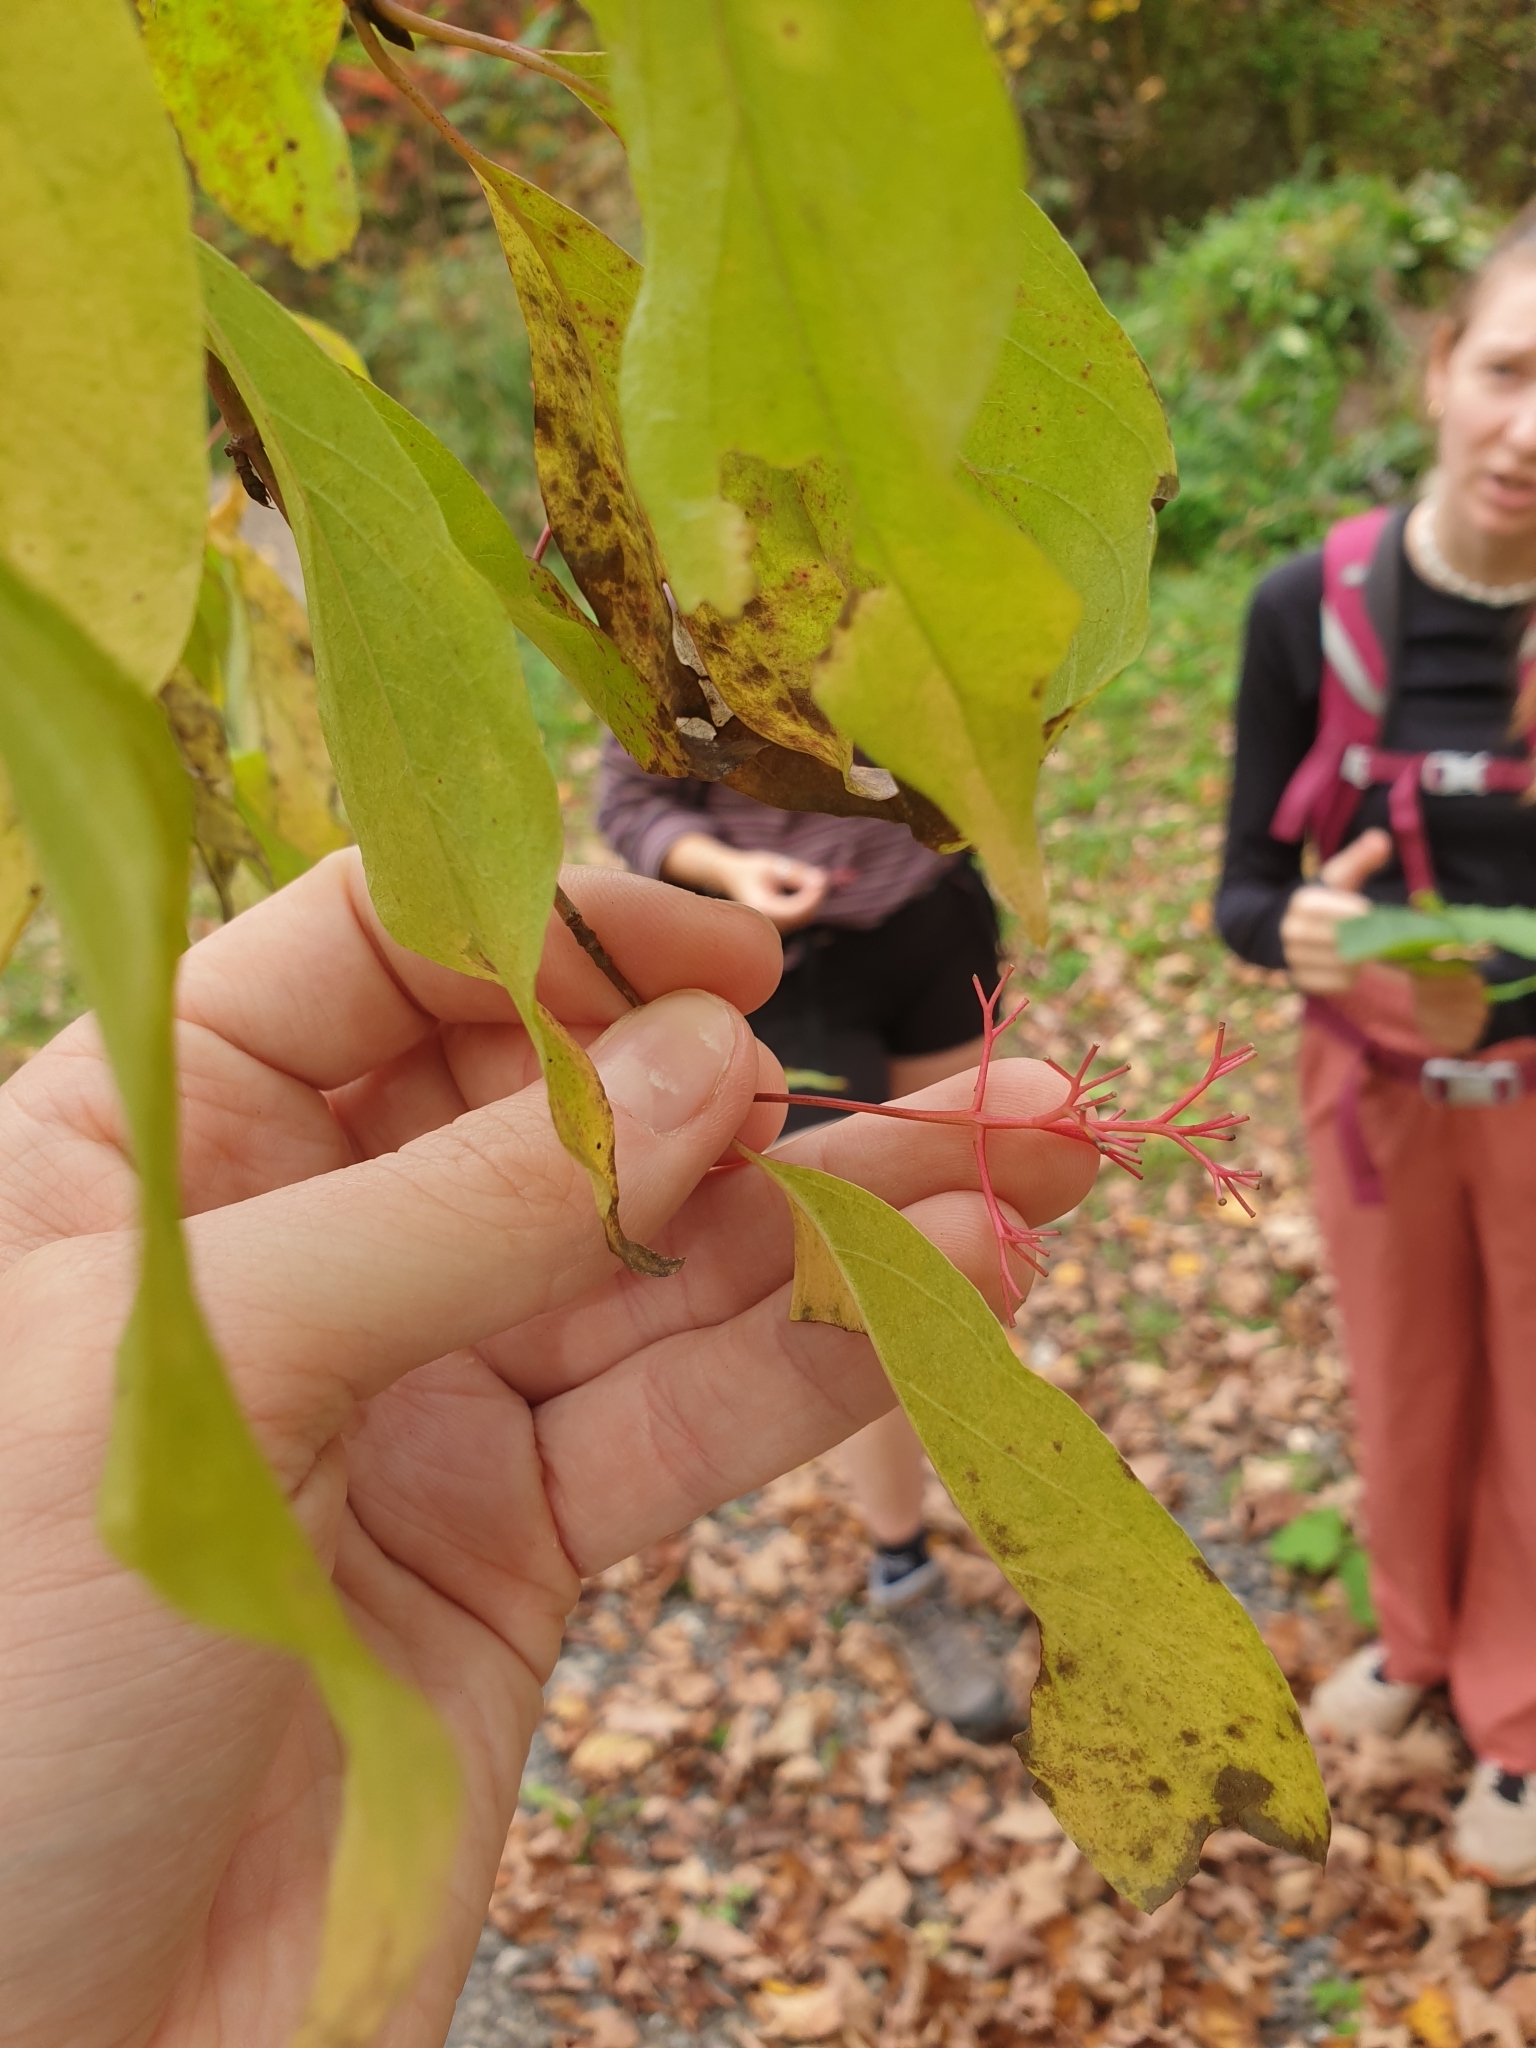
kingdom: Plantae
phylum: Tracheophyta
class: Magnoliopsida
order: Cornales
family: Cornaceae
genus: Cornus
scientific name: Cornus racemosa
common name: Panicled dogwood
